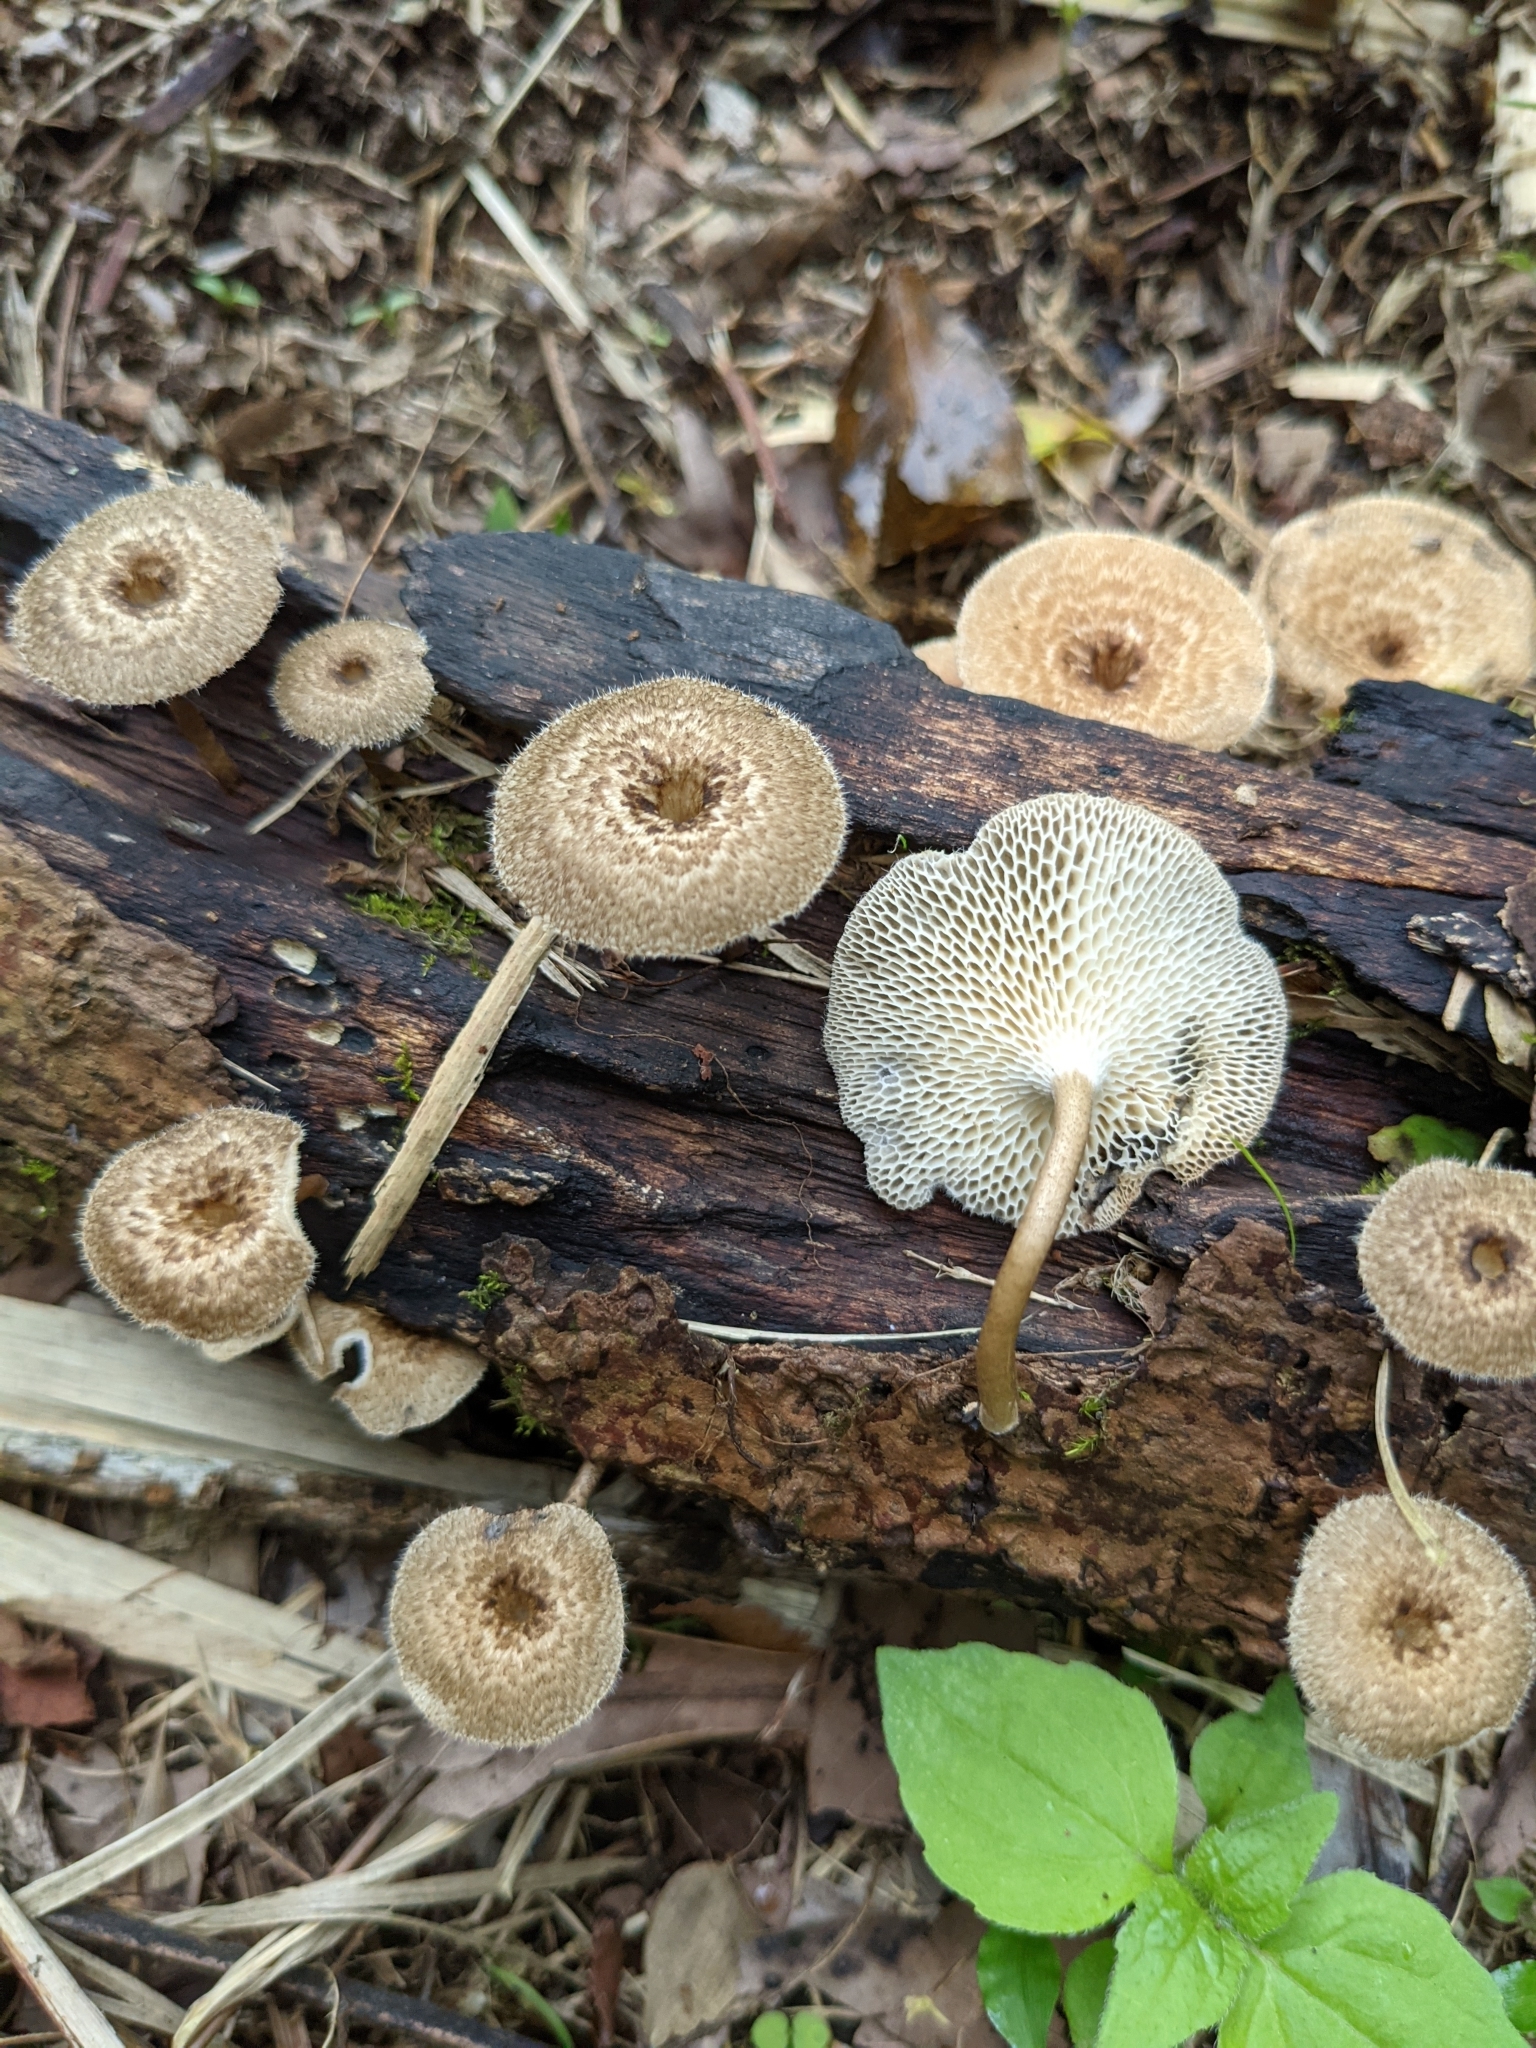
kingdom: Fungi
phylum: Basidiomycota
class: Agaricomycetes
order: Polyporales
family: Polyporaceae
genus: Lentinus
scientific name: Lentinus arcularius
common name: Spring polypore
